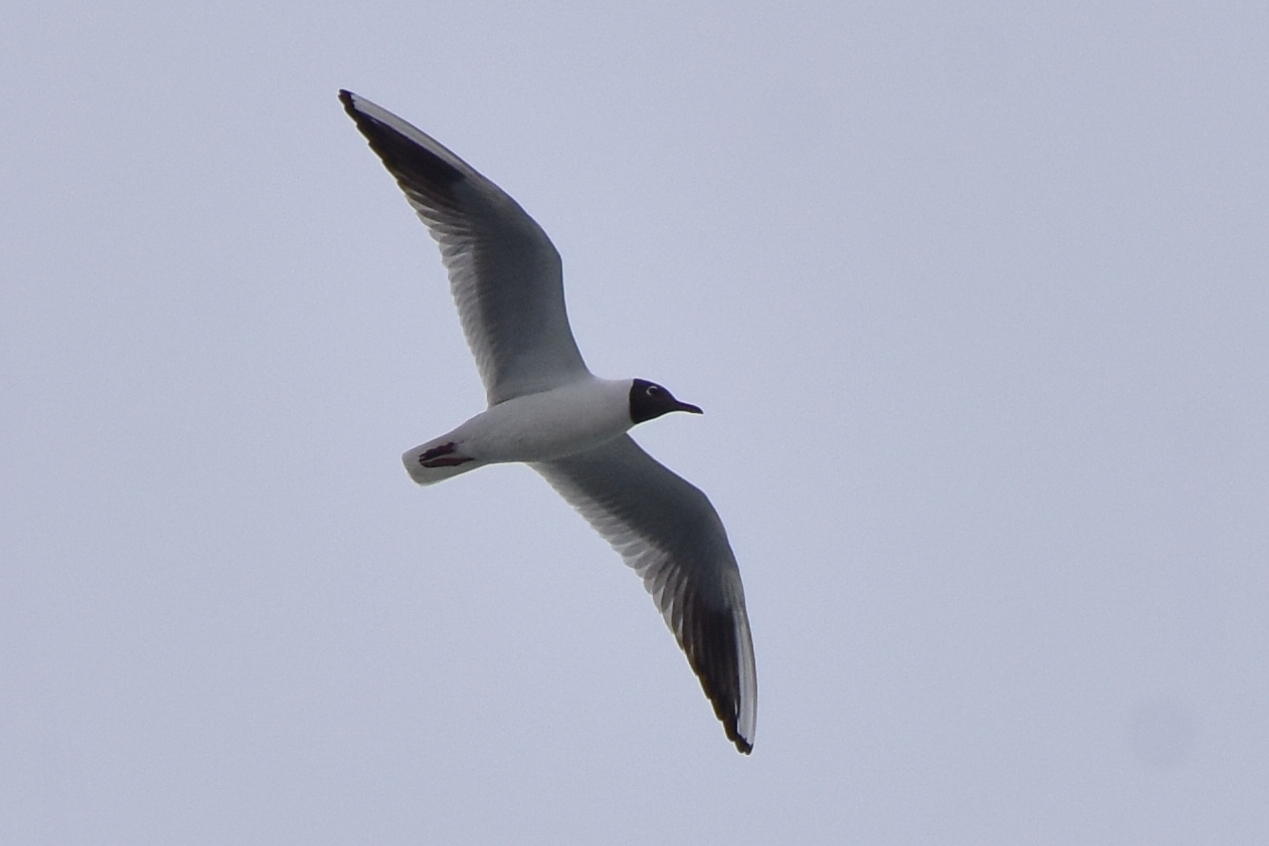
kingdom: Animalia
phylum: Chordata
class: Aves
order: Charadriiformes
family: Laridae
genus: Chroicocephalus
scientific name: Chroicocephalus ridibundus
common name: Black-headed gull
